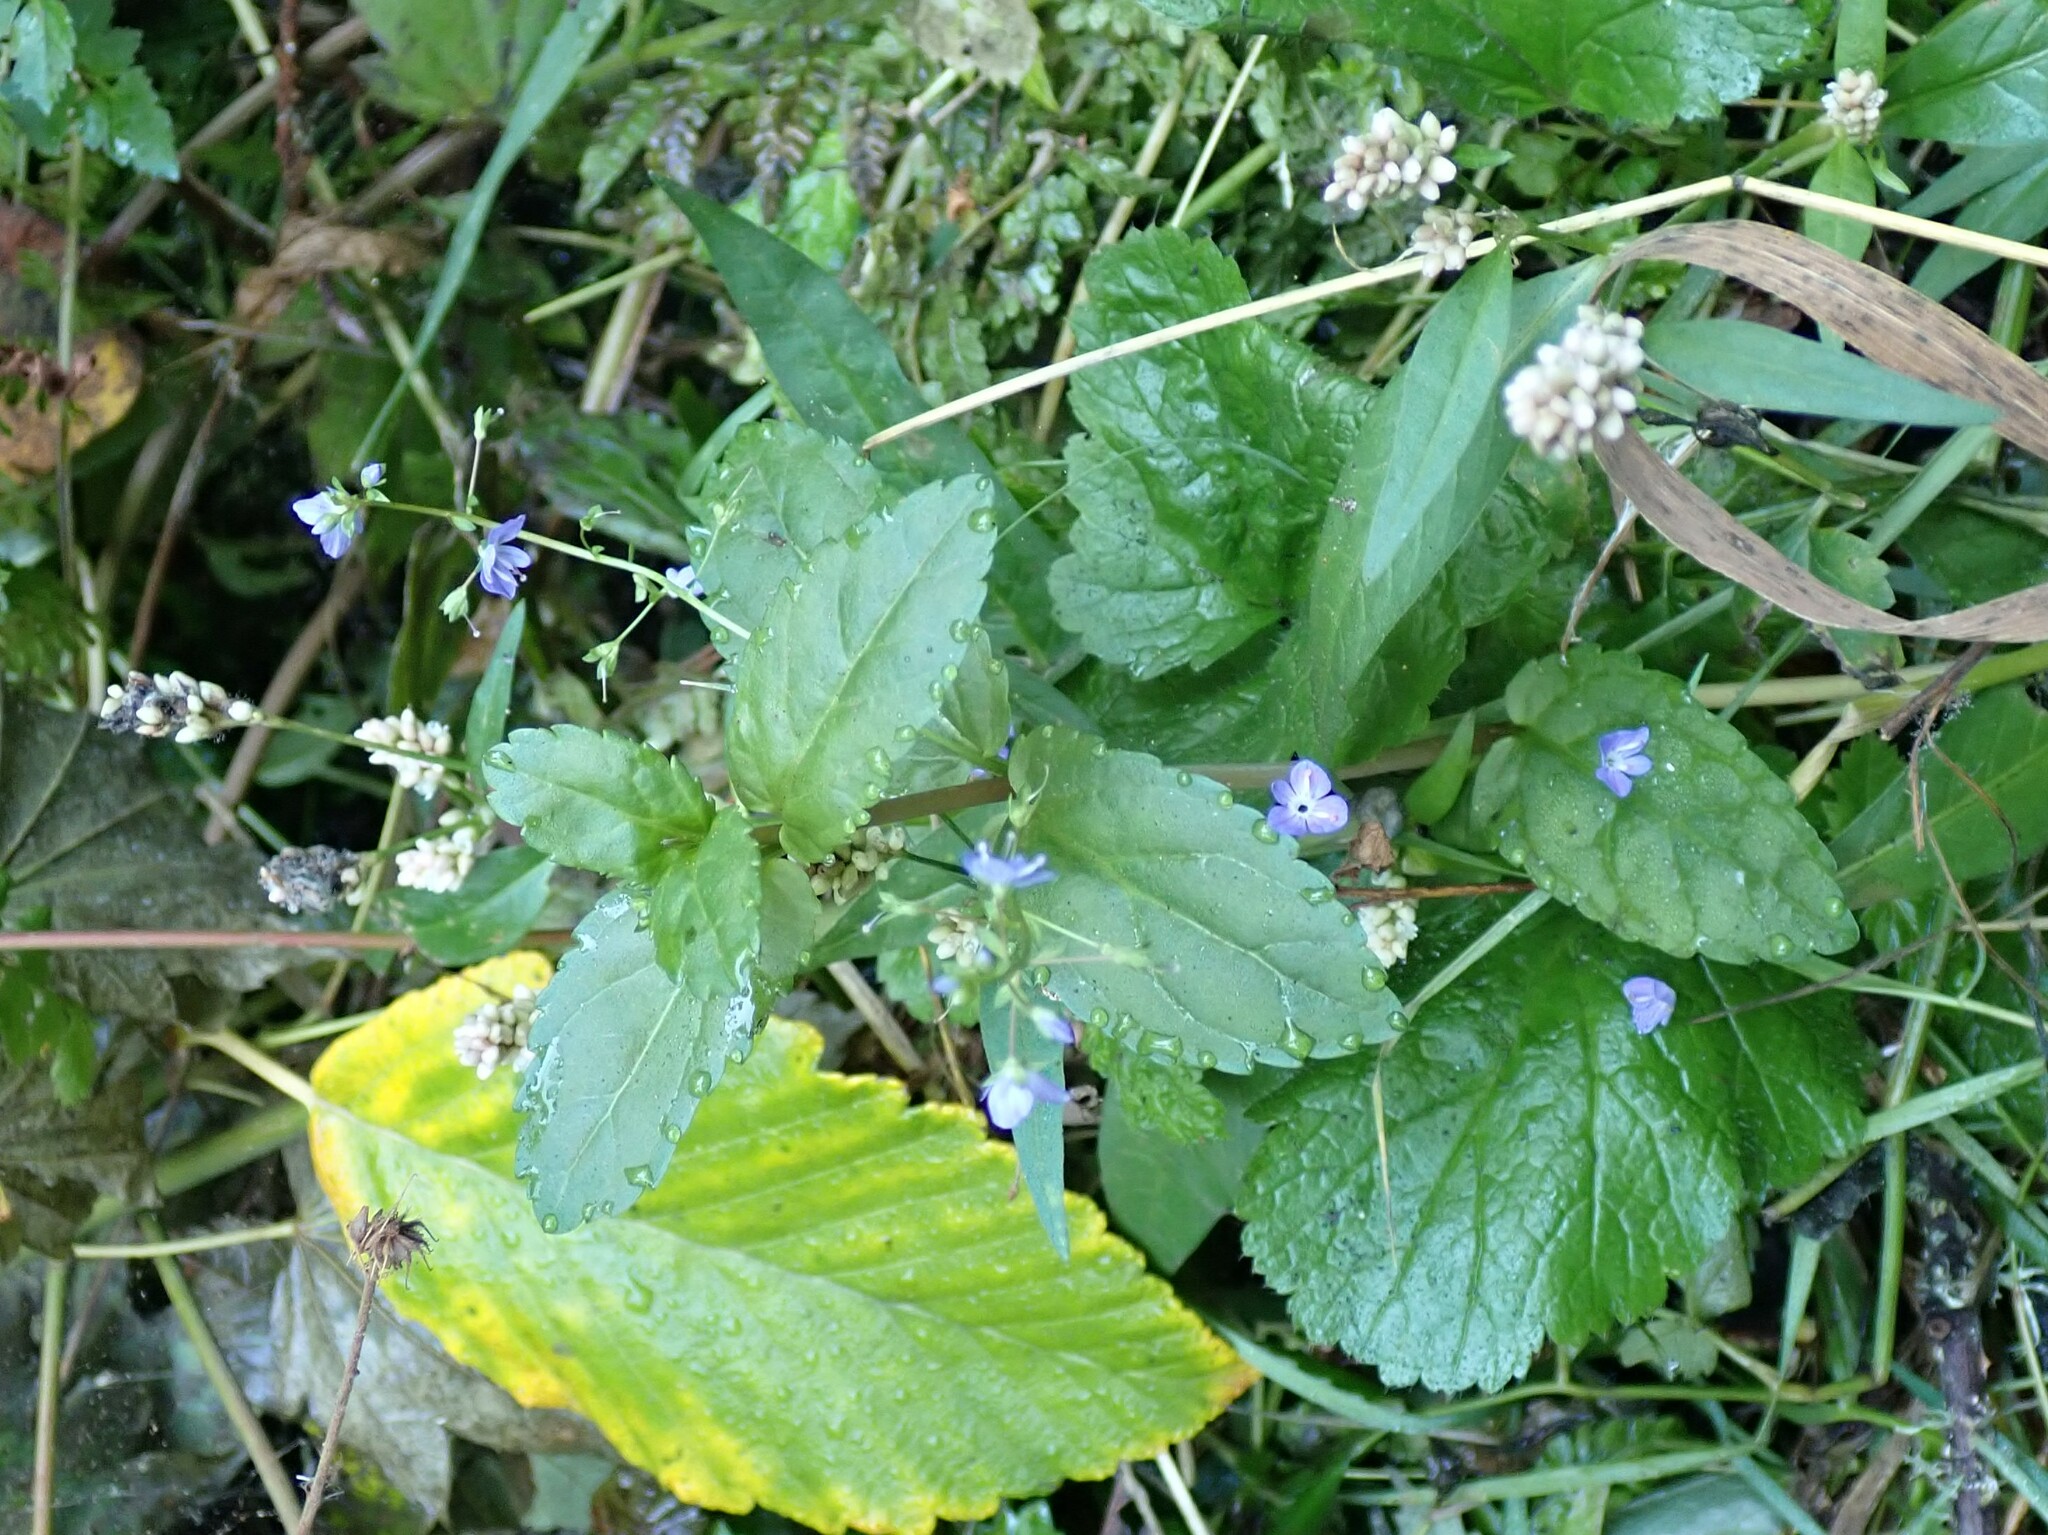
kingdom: Plantae
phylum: Tracheophyta
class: Magnoliopsida
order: Lamiales
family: Plantaginaceae
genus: Veronica
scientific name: Veronica americana
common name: American brooklime
